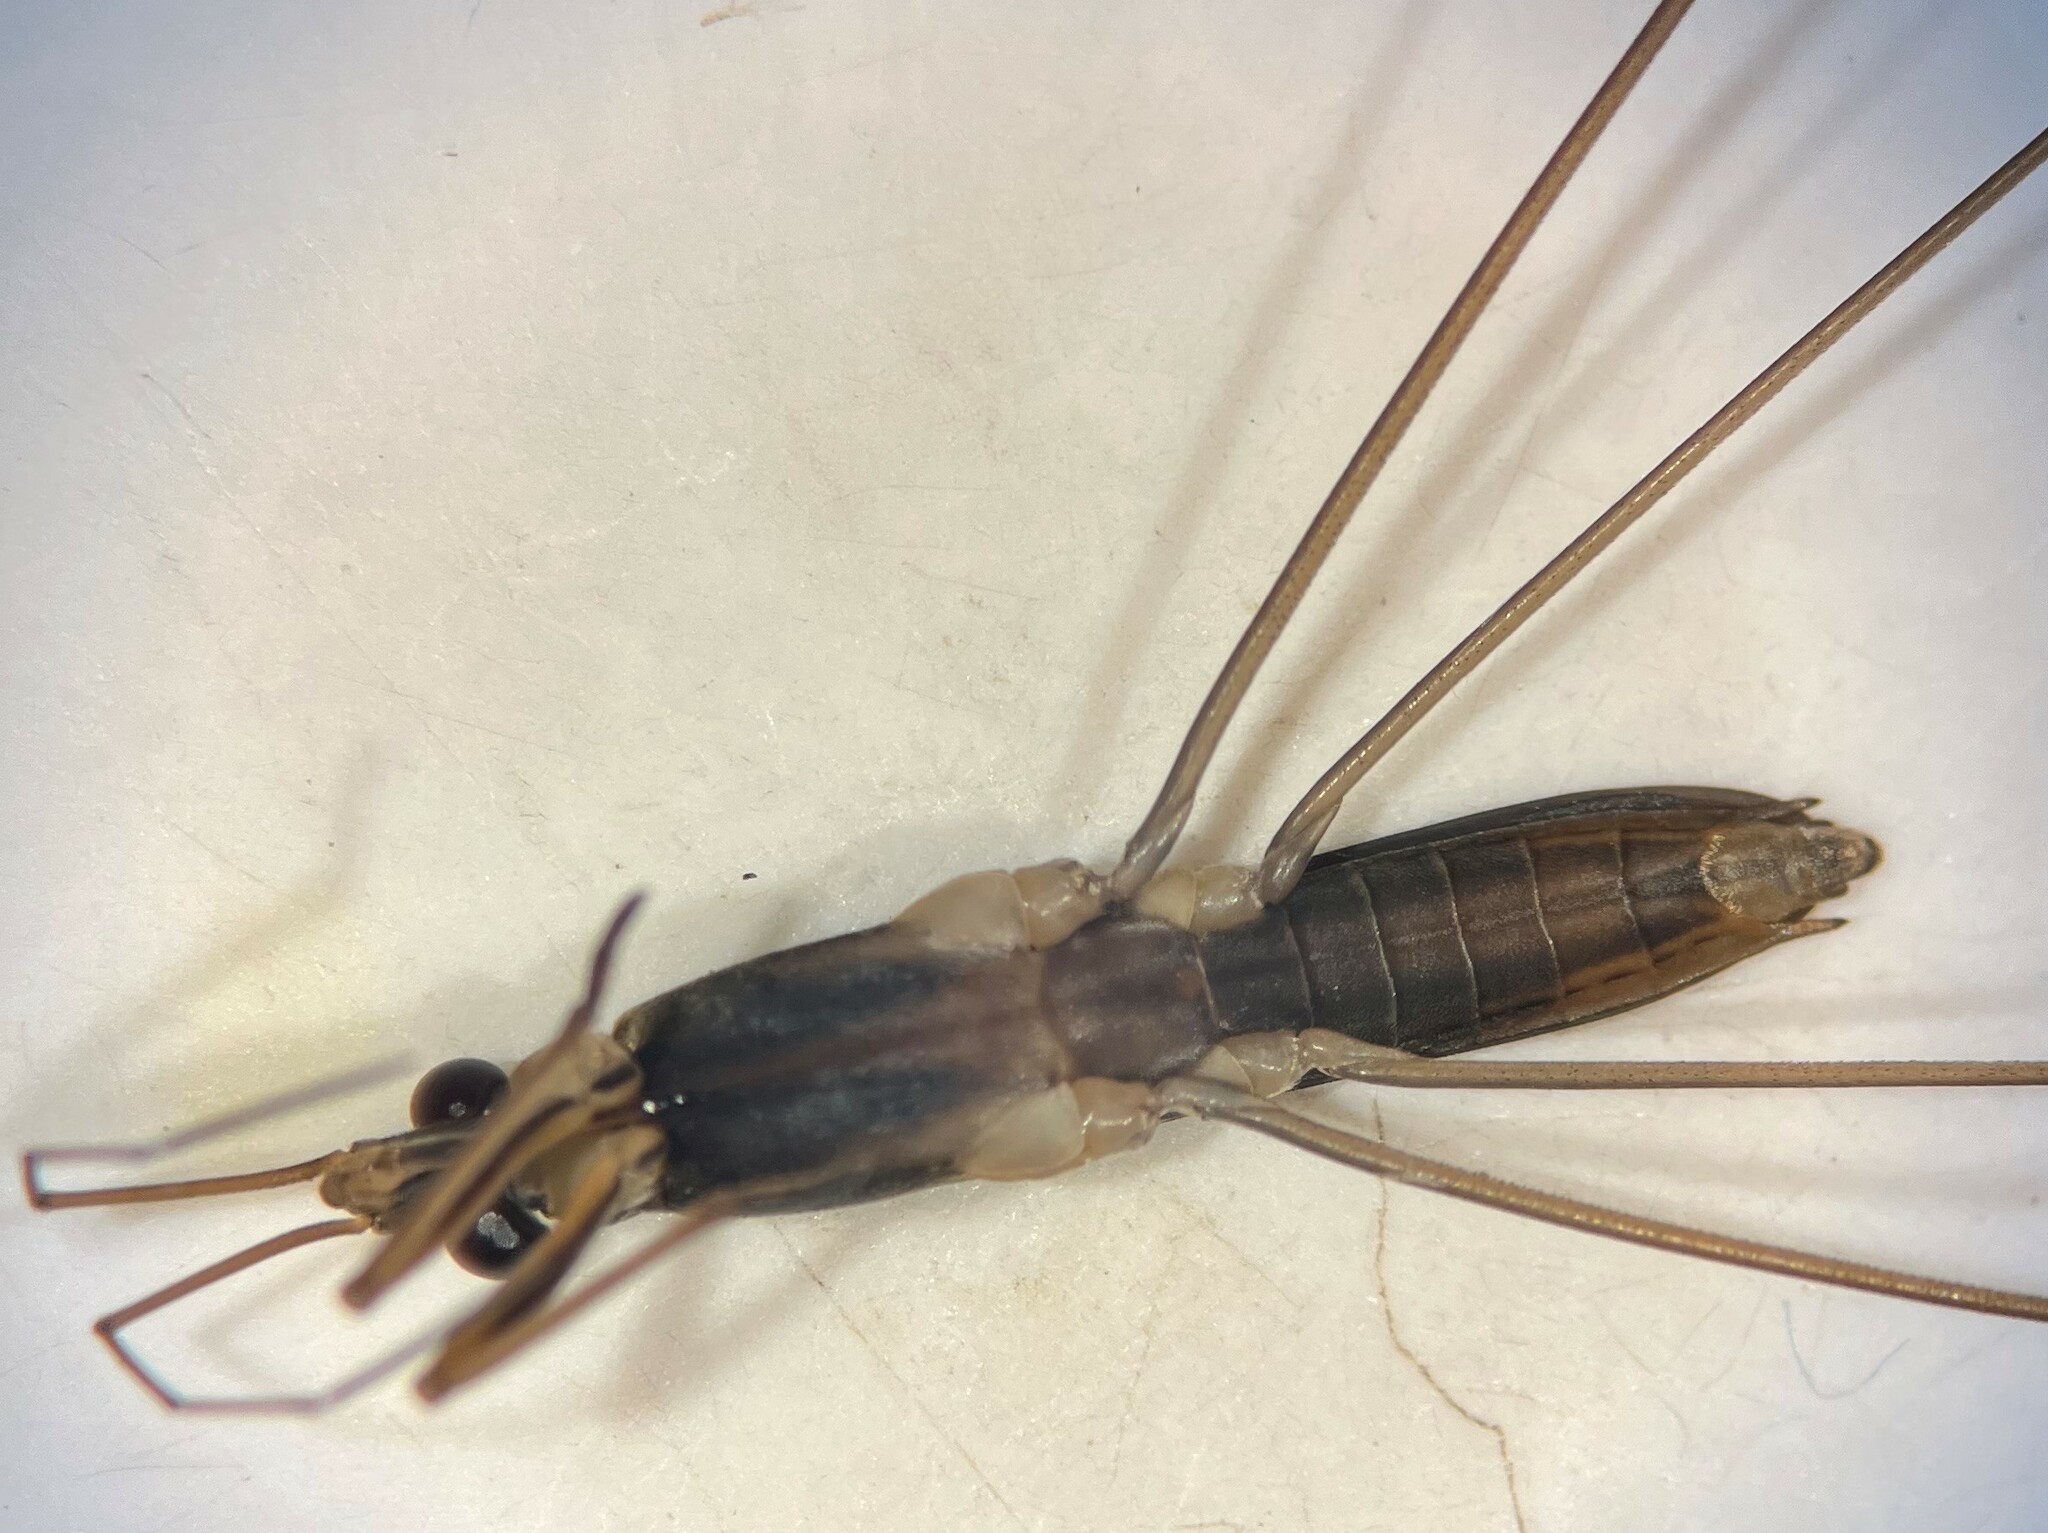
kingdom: Animalia
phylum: Arthropoda
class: Insecta
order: Hemiptera
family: Gerridae
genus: Limnoporus
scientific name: Limnoporus dissortis
